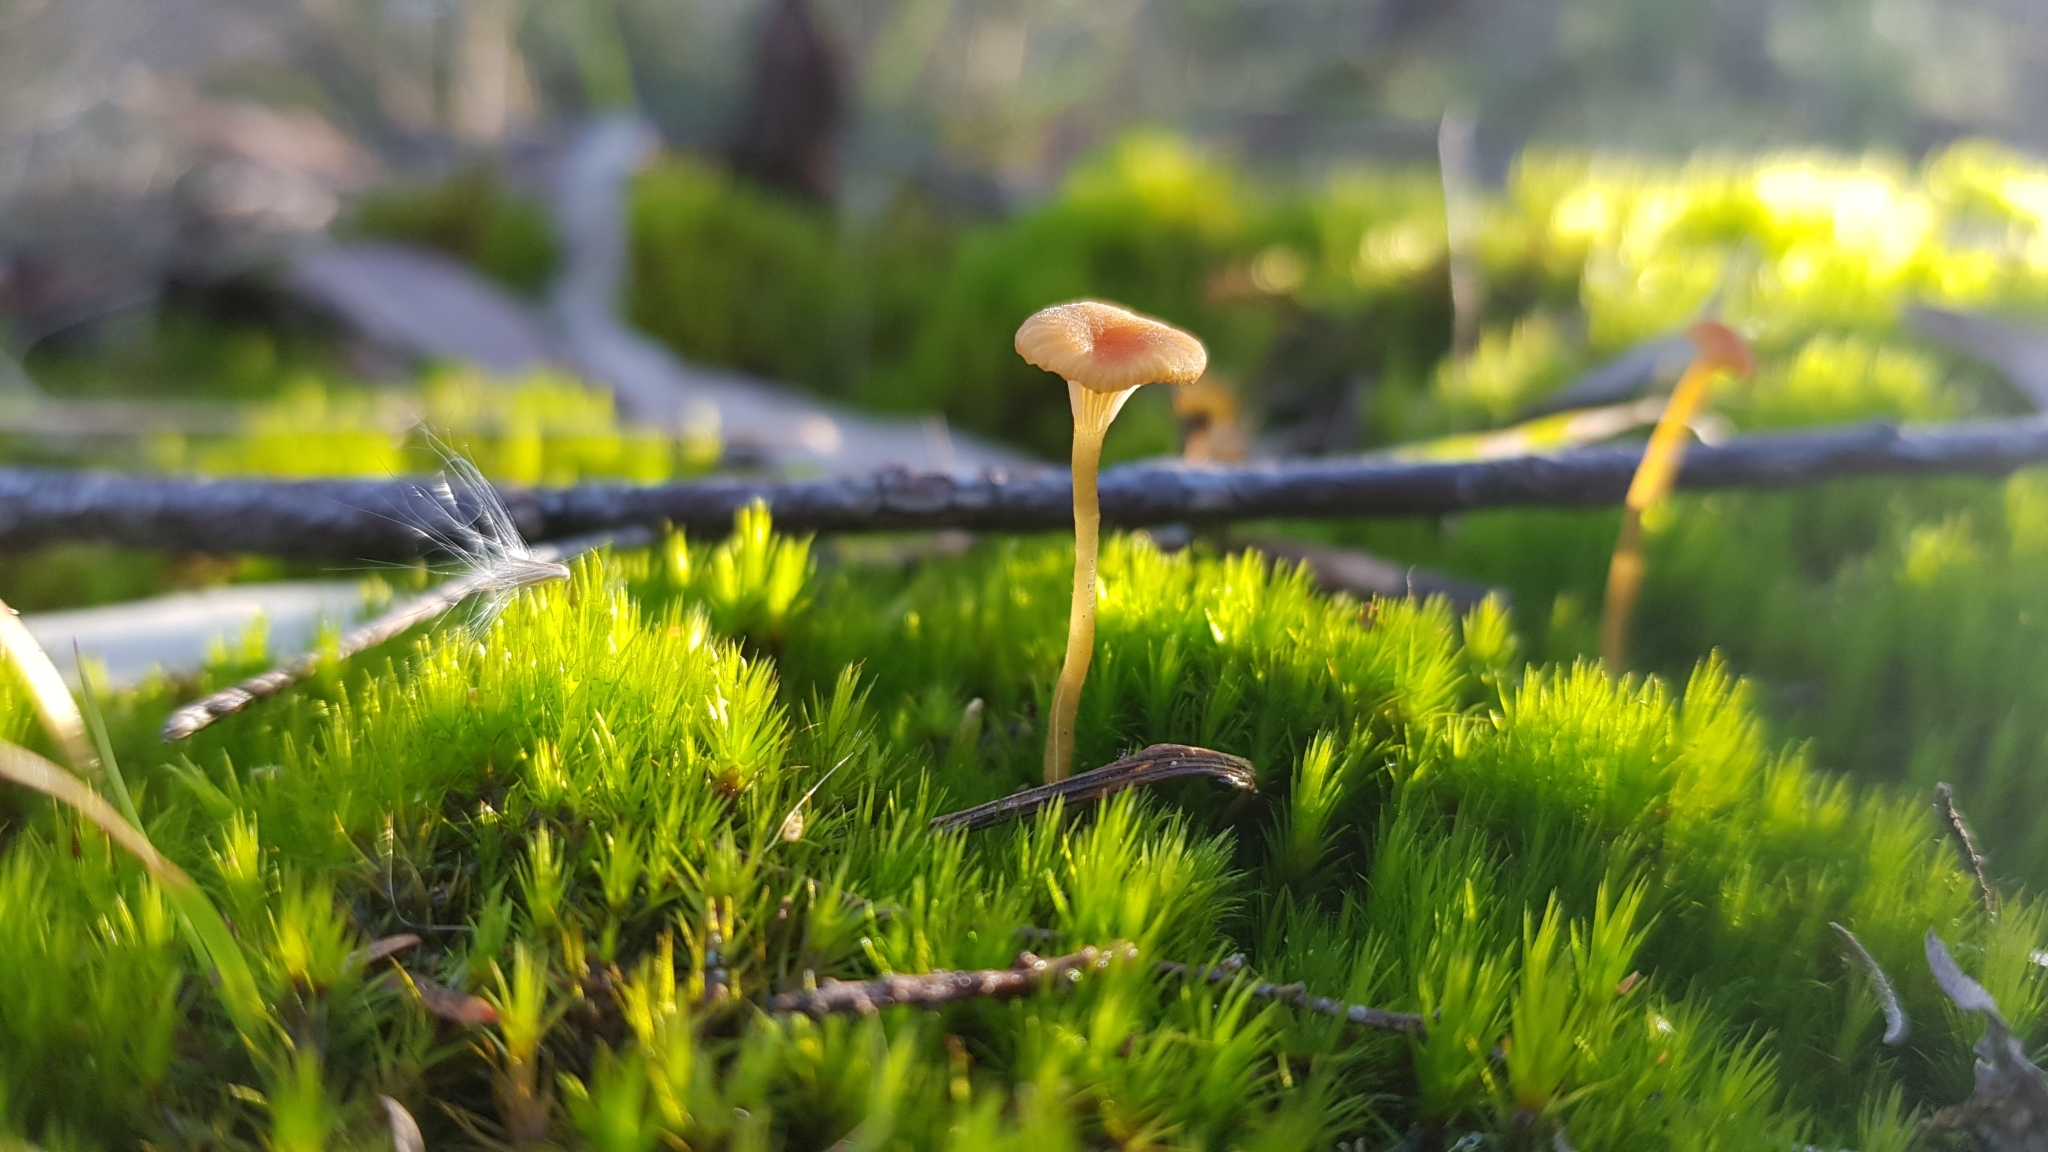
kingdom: Fungi
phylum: Basidiomycota
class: Agaricomycetes
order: Hymenochaetales
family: Rickenellaceae
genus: Rickenella
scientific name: Rickenella fibula
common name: Orange mosscap
